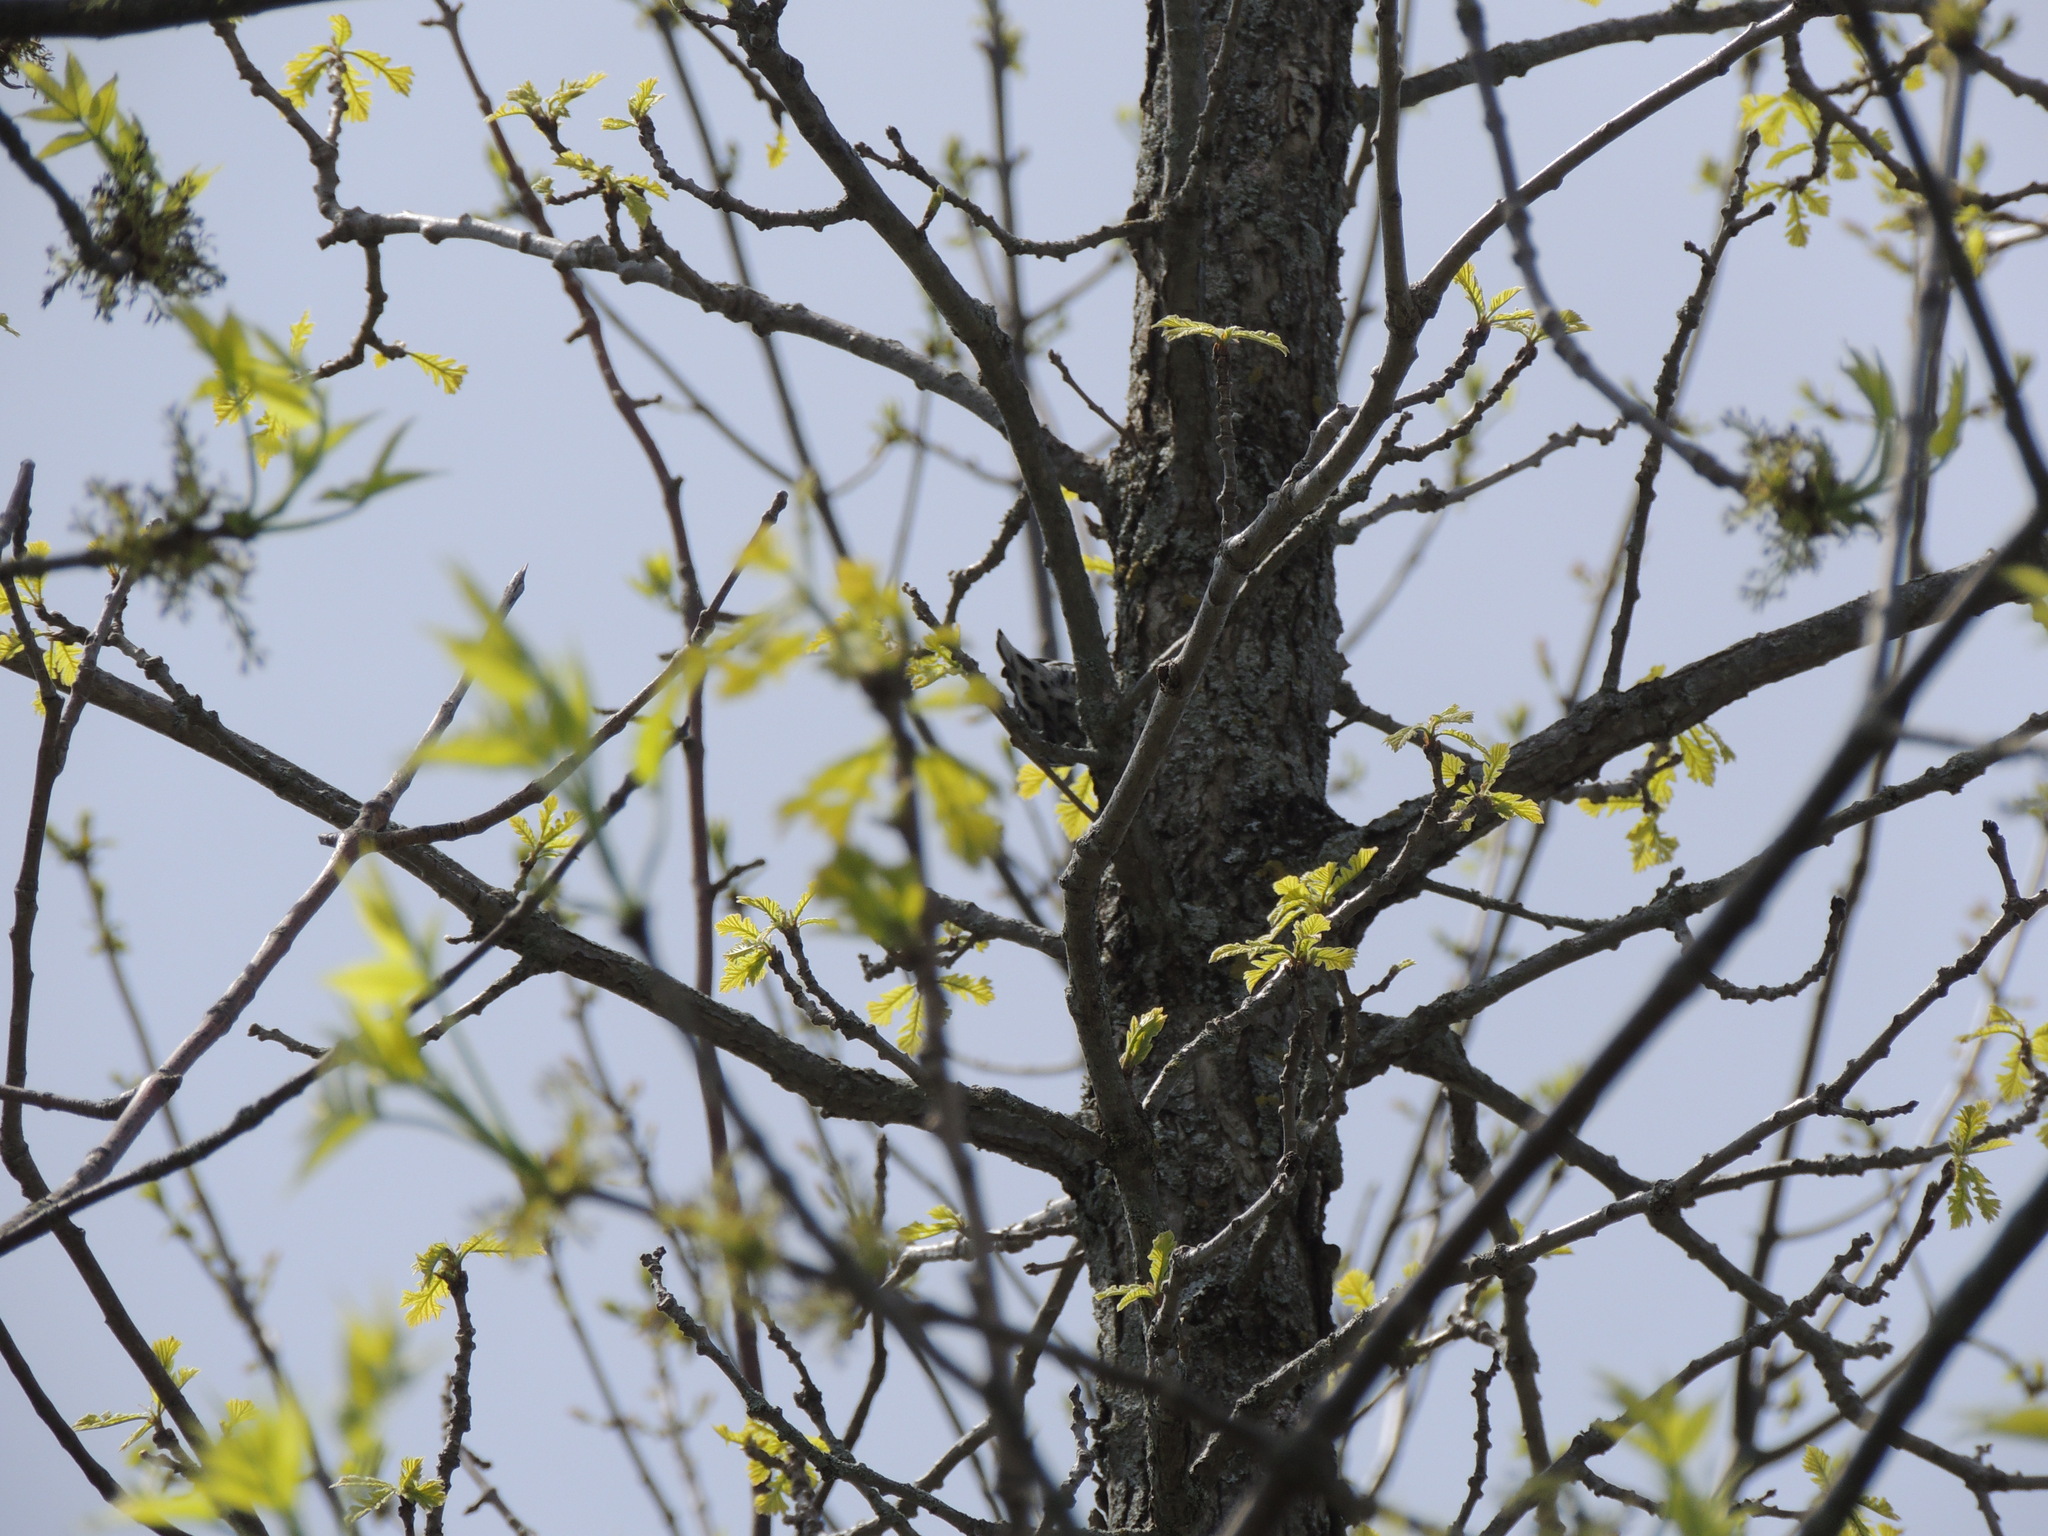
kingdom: Animalia
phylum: Chordata
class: Aves
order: Passeriformes
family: Parulidae
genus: Mniotilta
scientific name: Mniotilta varia
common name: Black-and-white warbler
